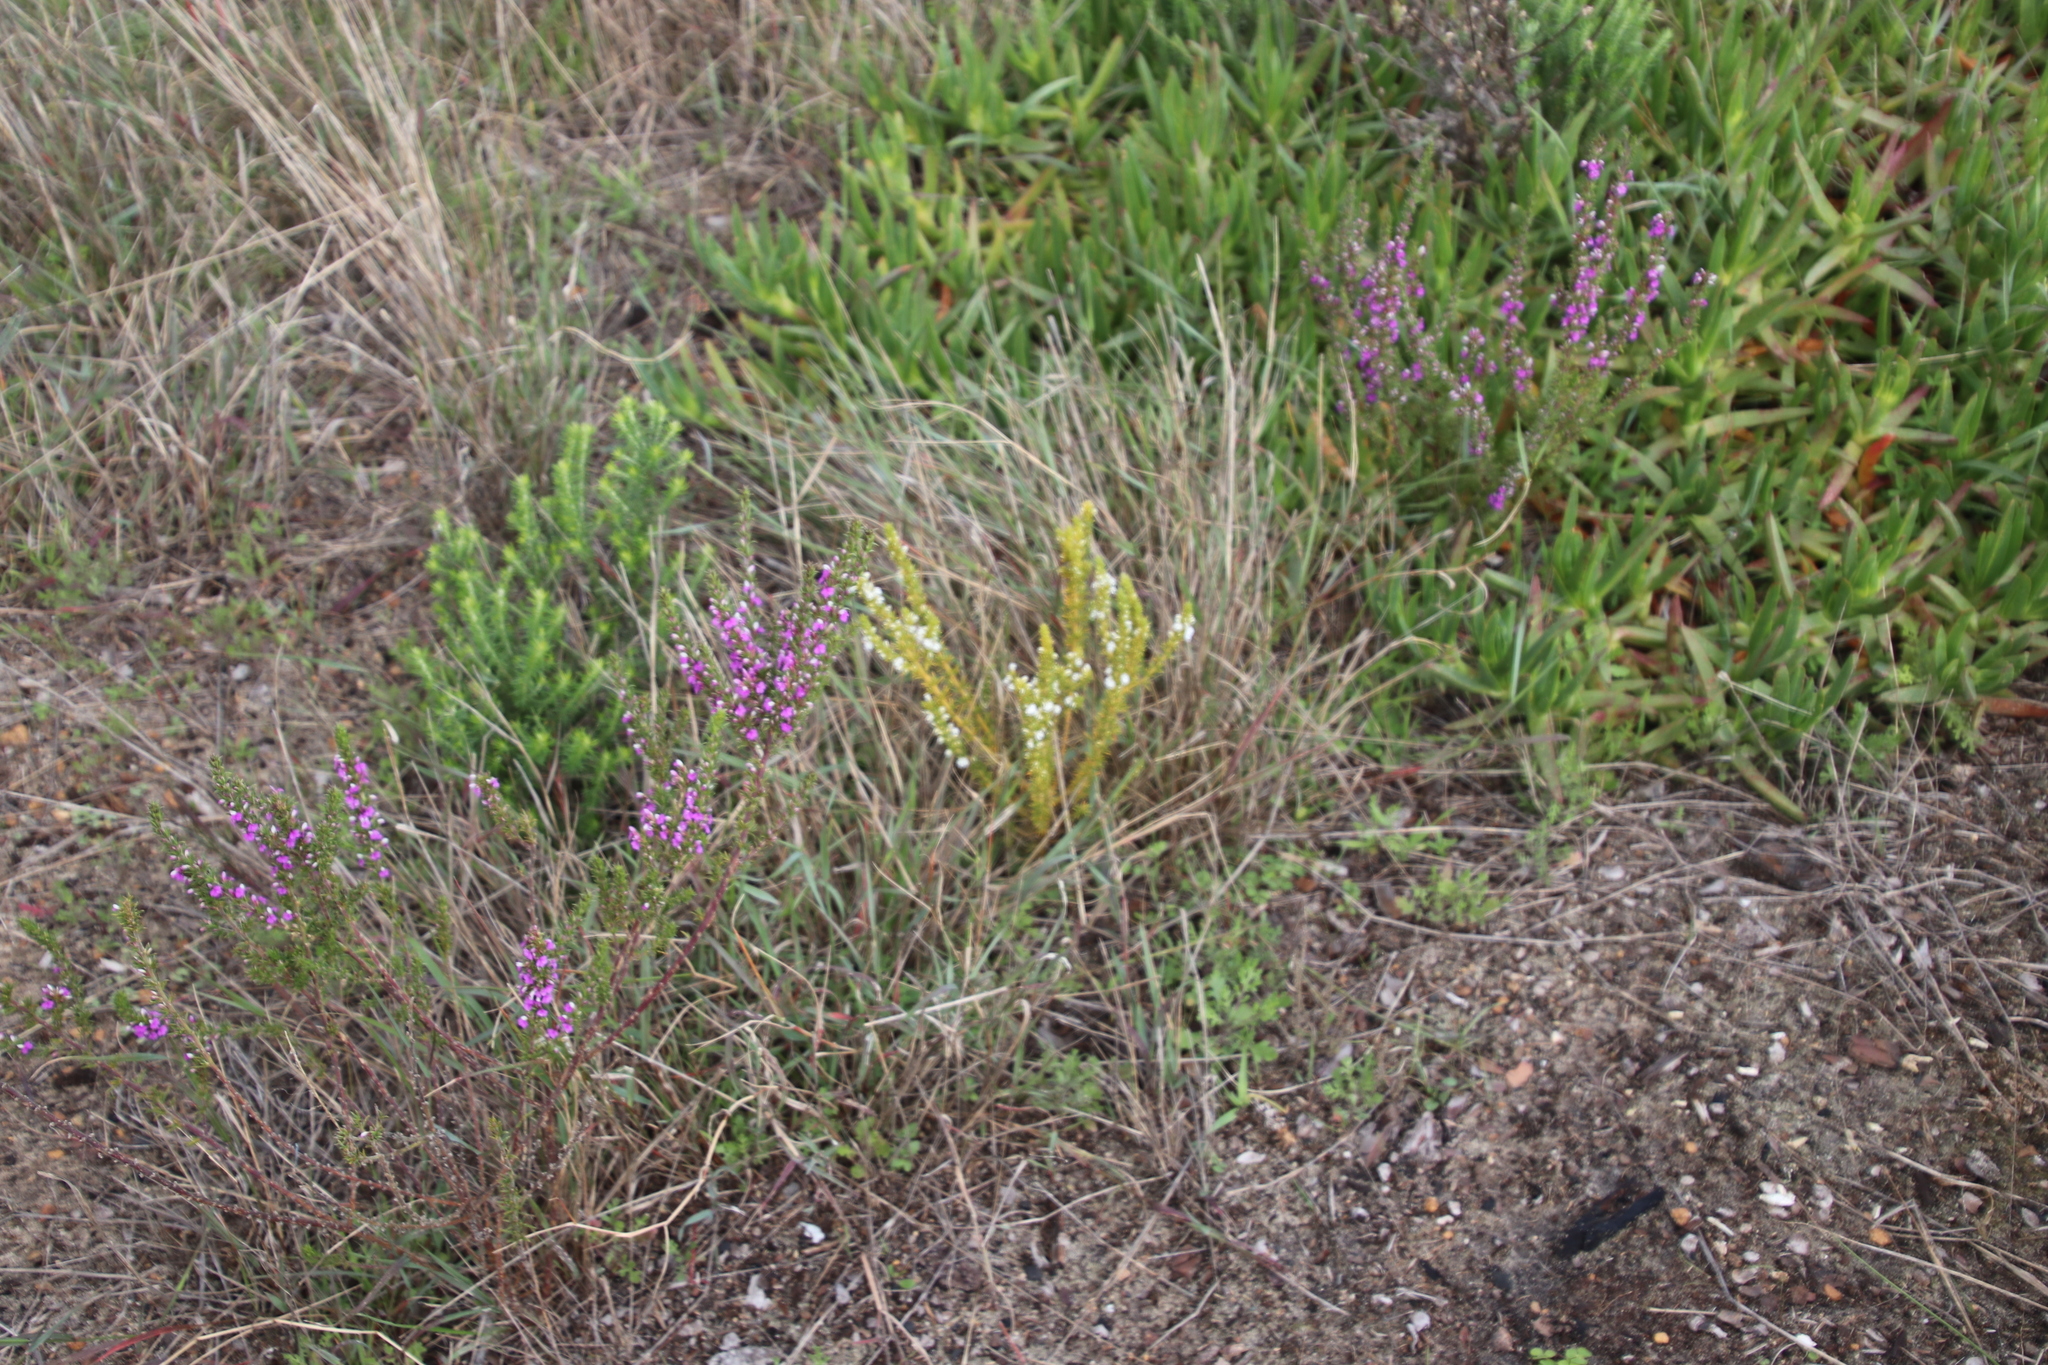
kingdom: Plantae
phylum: Tracheophyta
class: Magnoliopsida
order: Fabales
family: Polygalaceae
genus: Muraltia
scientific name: Muraltia heisteria
